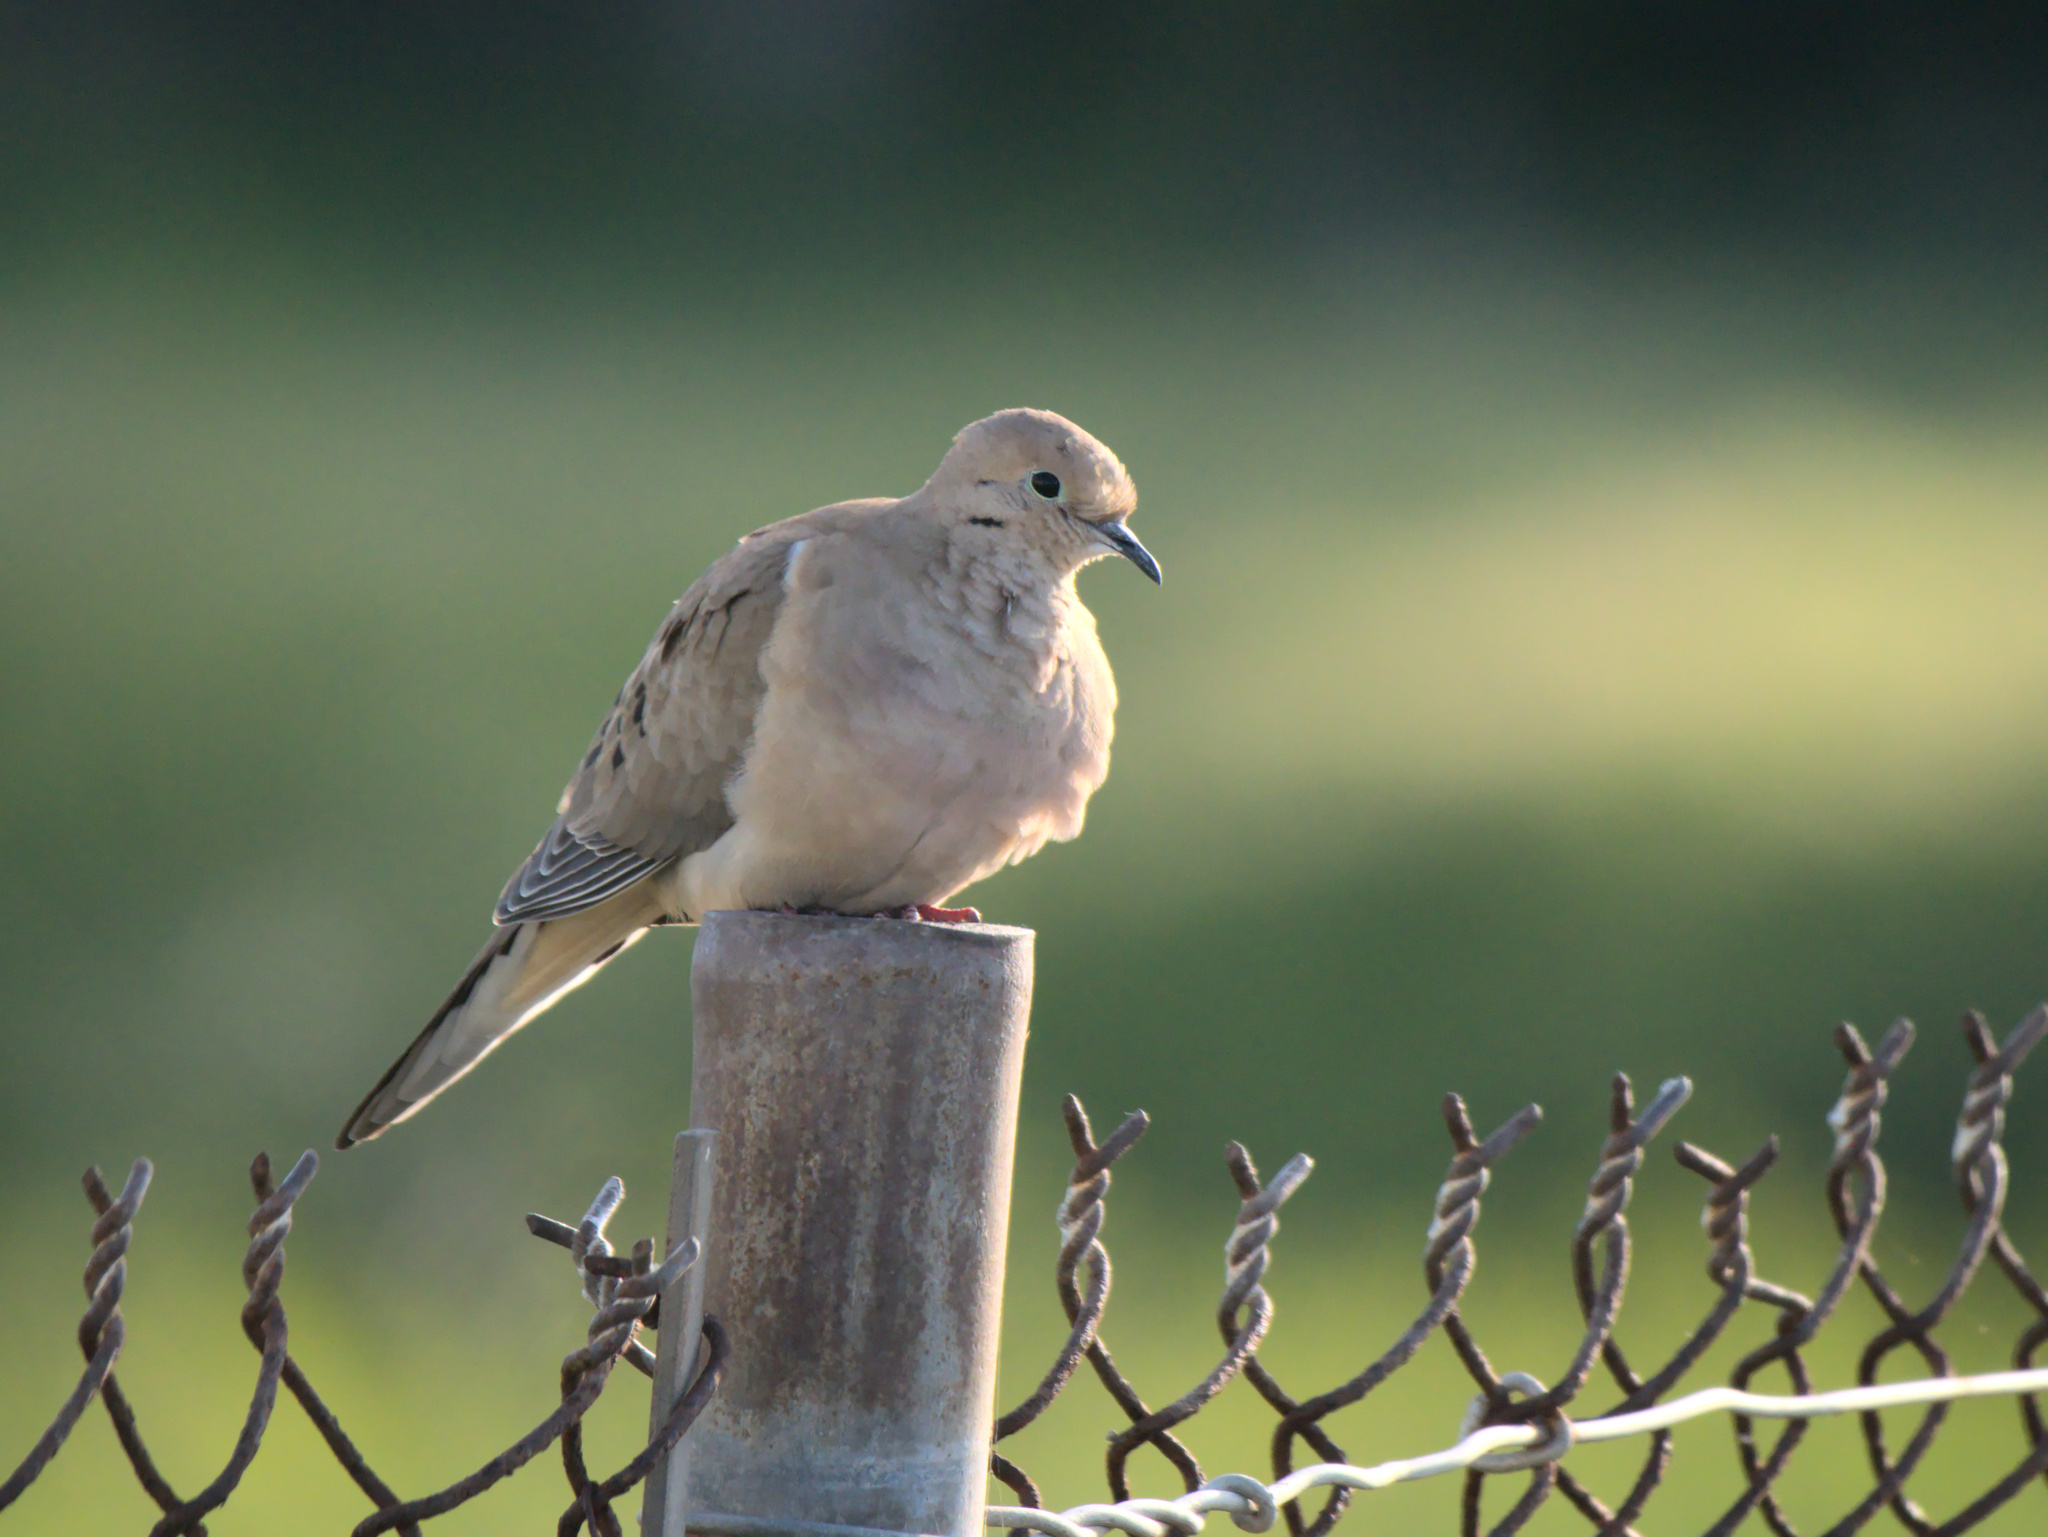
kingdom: Animalia
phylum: Chordata
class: Aves
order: Columbiformes
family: Columbidae
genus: Zenaida
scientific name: Zenaida macroura
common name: Mourning dove
